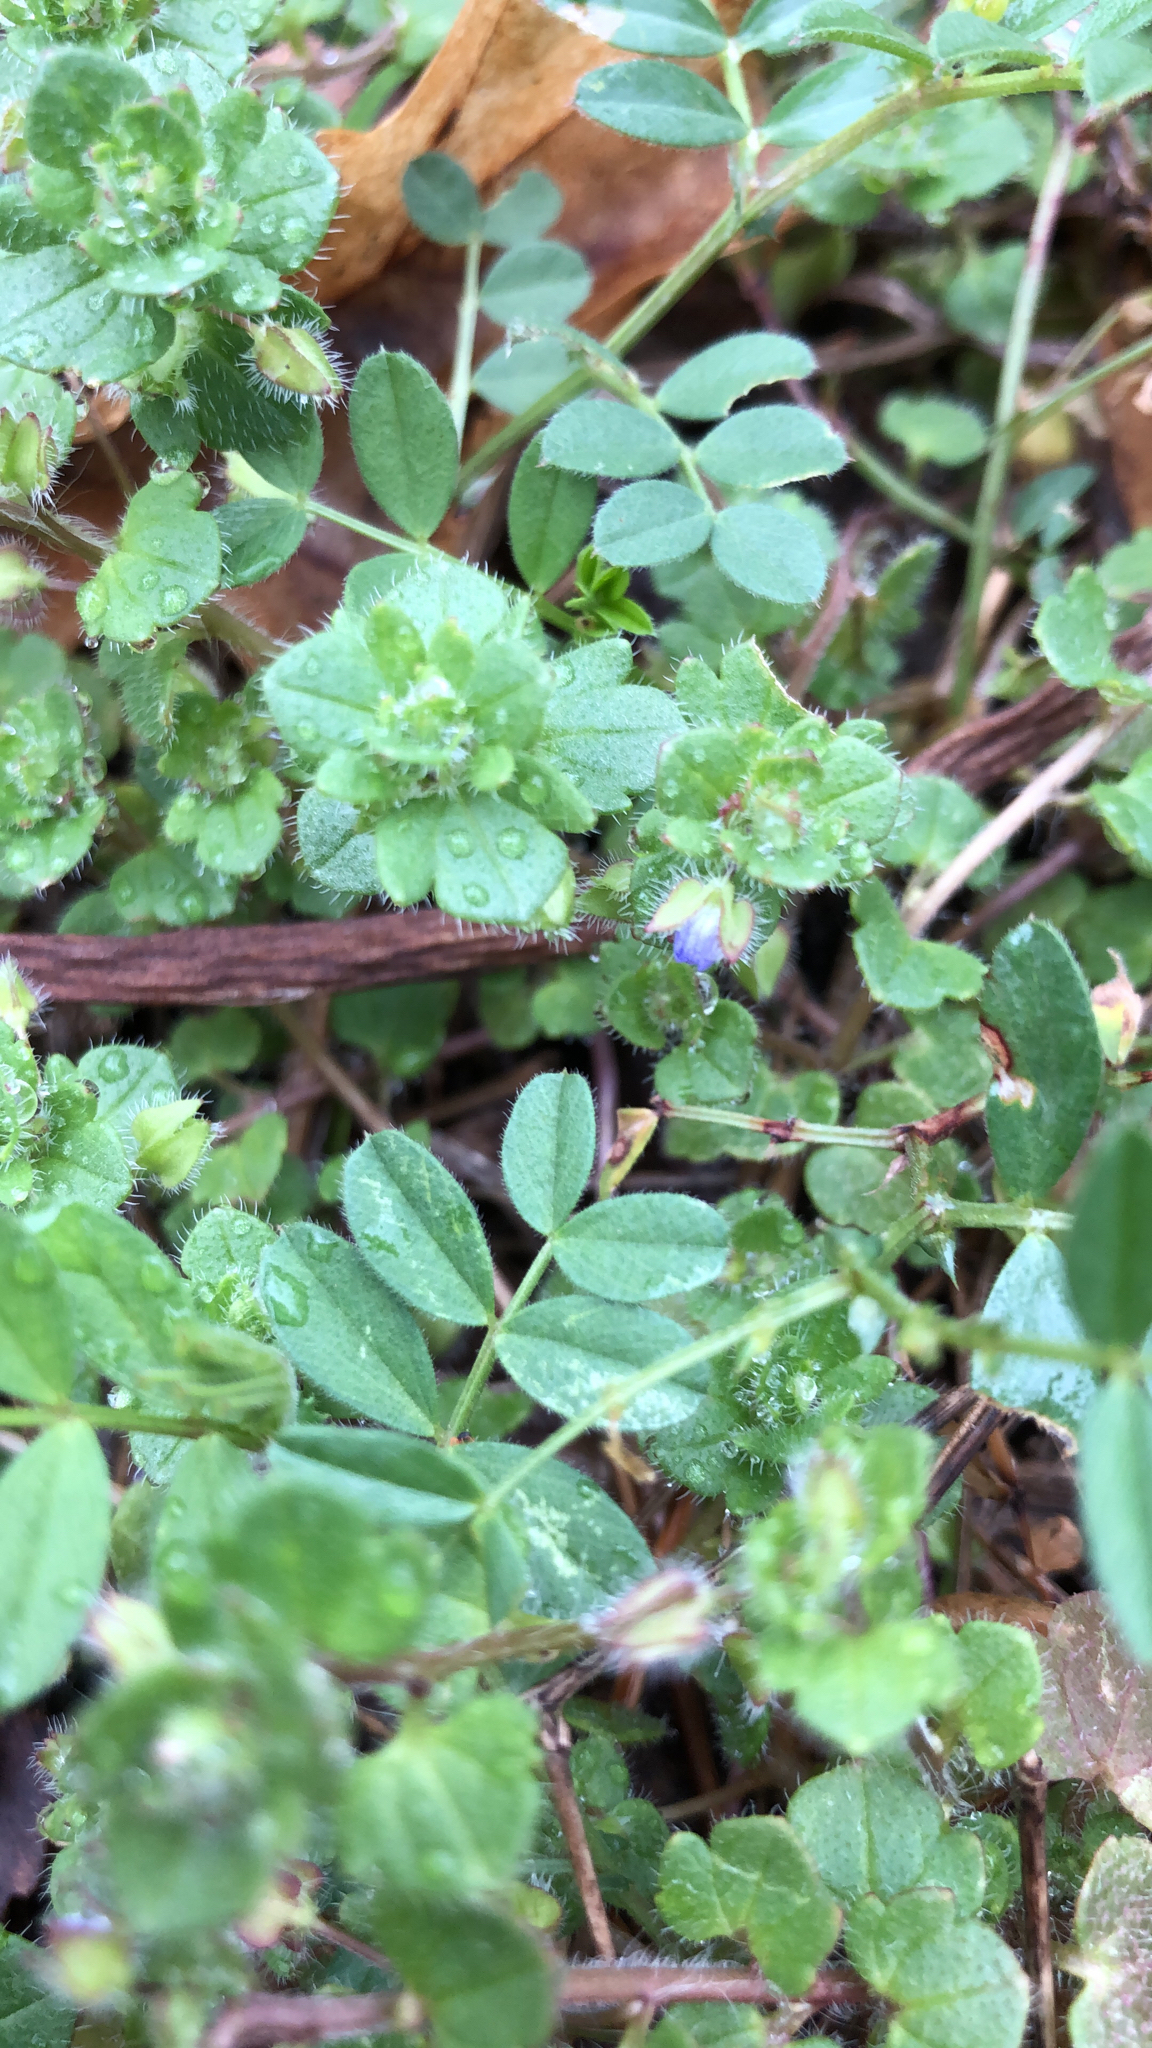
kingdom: Plantae
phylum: Tracheophyta
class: Magnoliopsida
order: Lamiales
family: Plantaginaceae
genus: Veronica
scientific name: Veronica hederifolia
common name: Ivy-leaved speedwell
